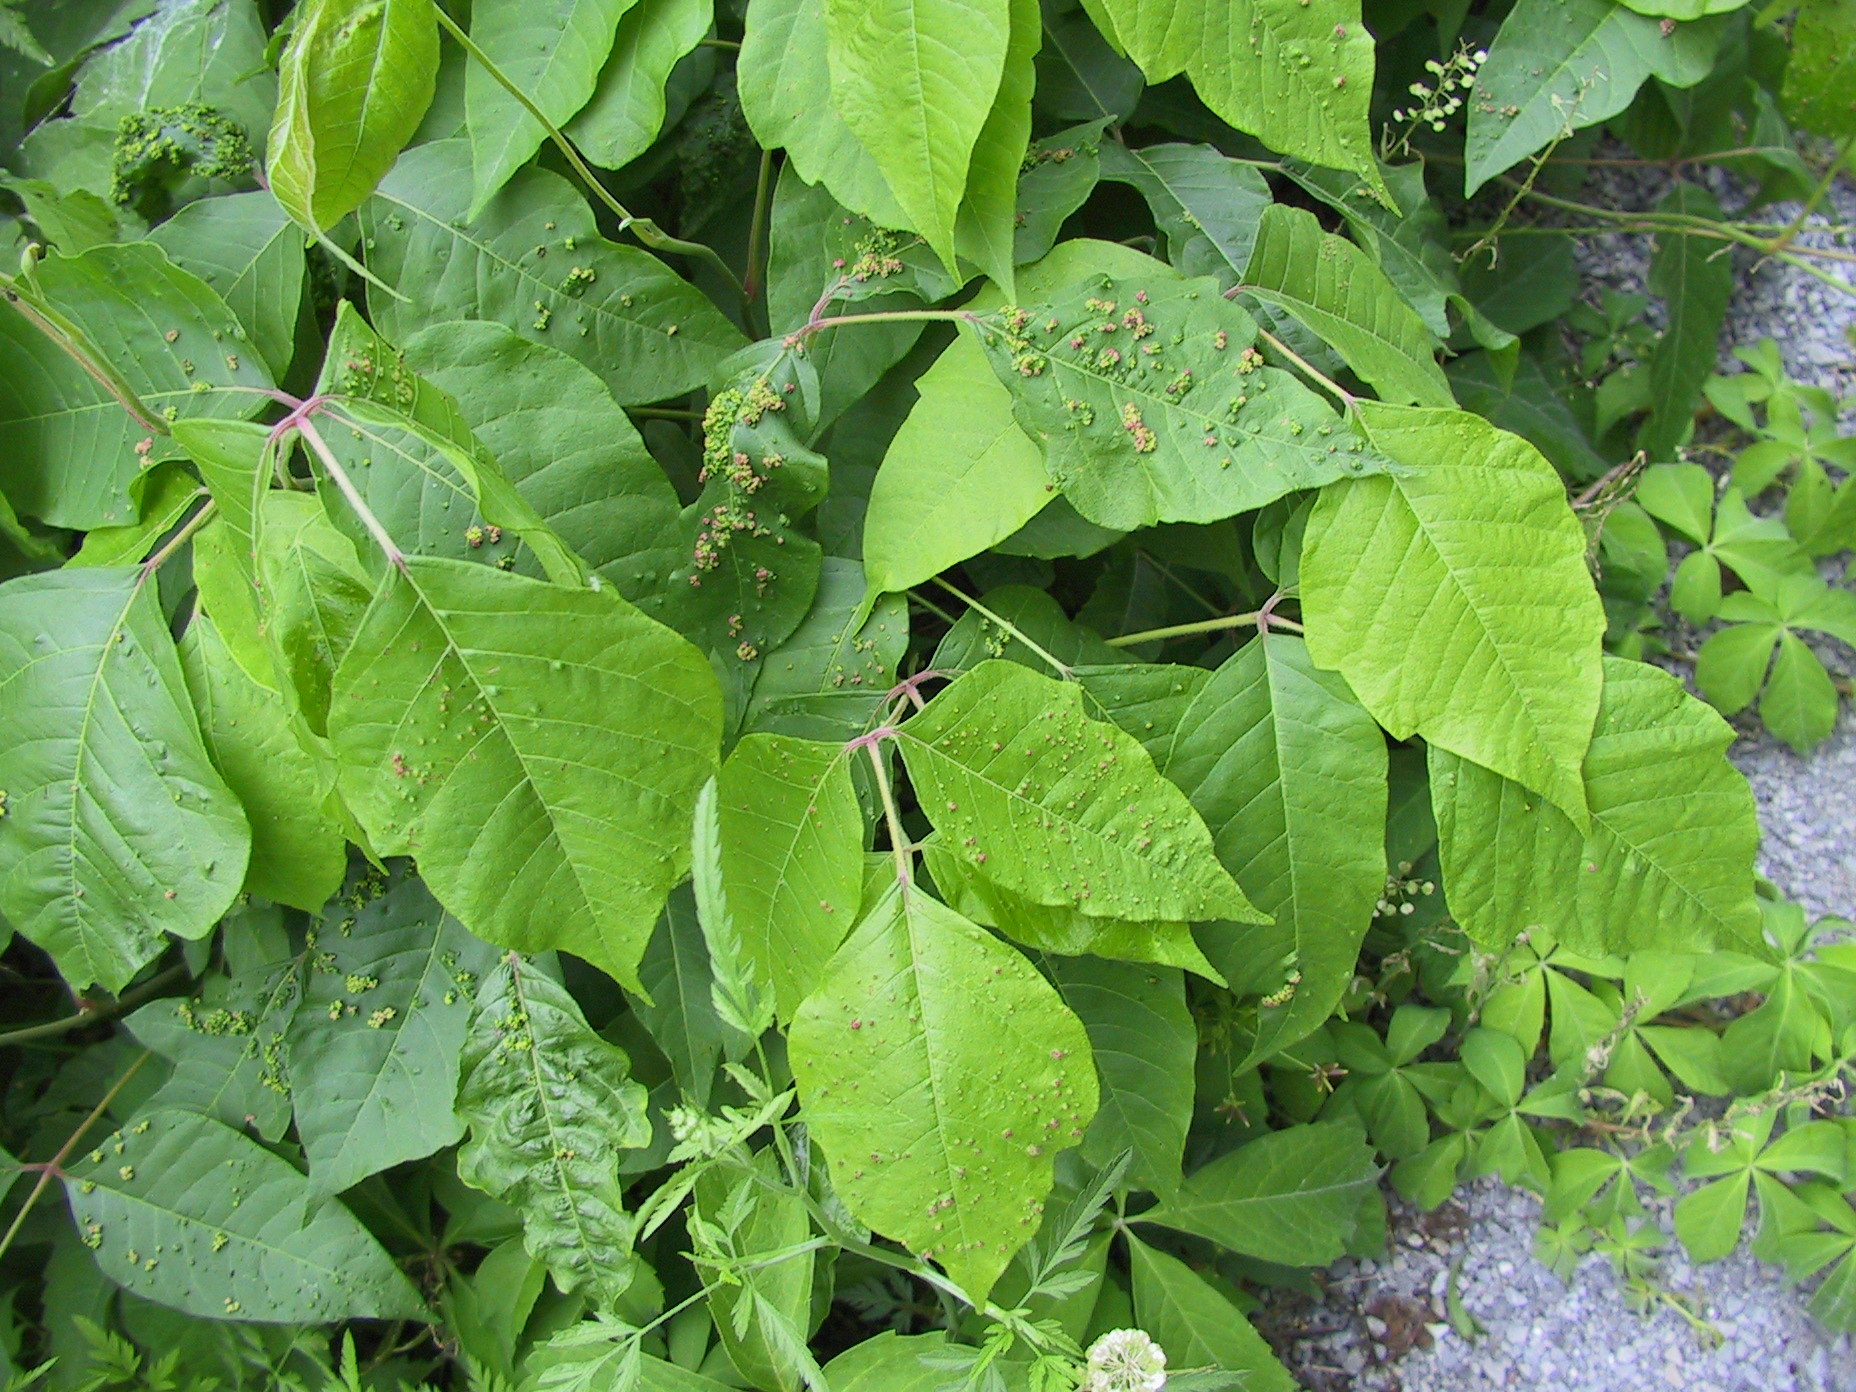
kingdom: Plantae
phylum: Tracheophyta
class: Magnoliopsida
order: Sapindales
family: Anacardiaceae
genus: Toxicodendron
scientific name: Toxicodendron radicans
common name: Poison ivy
